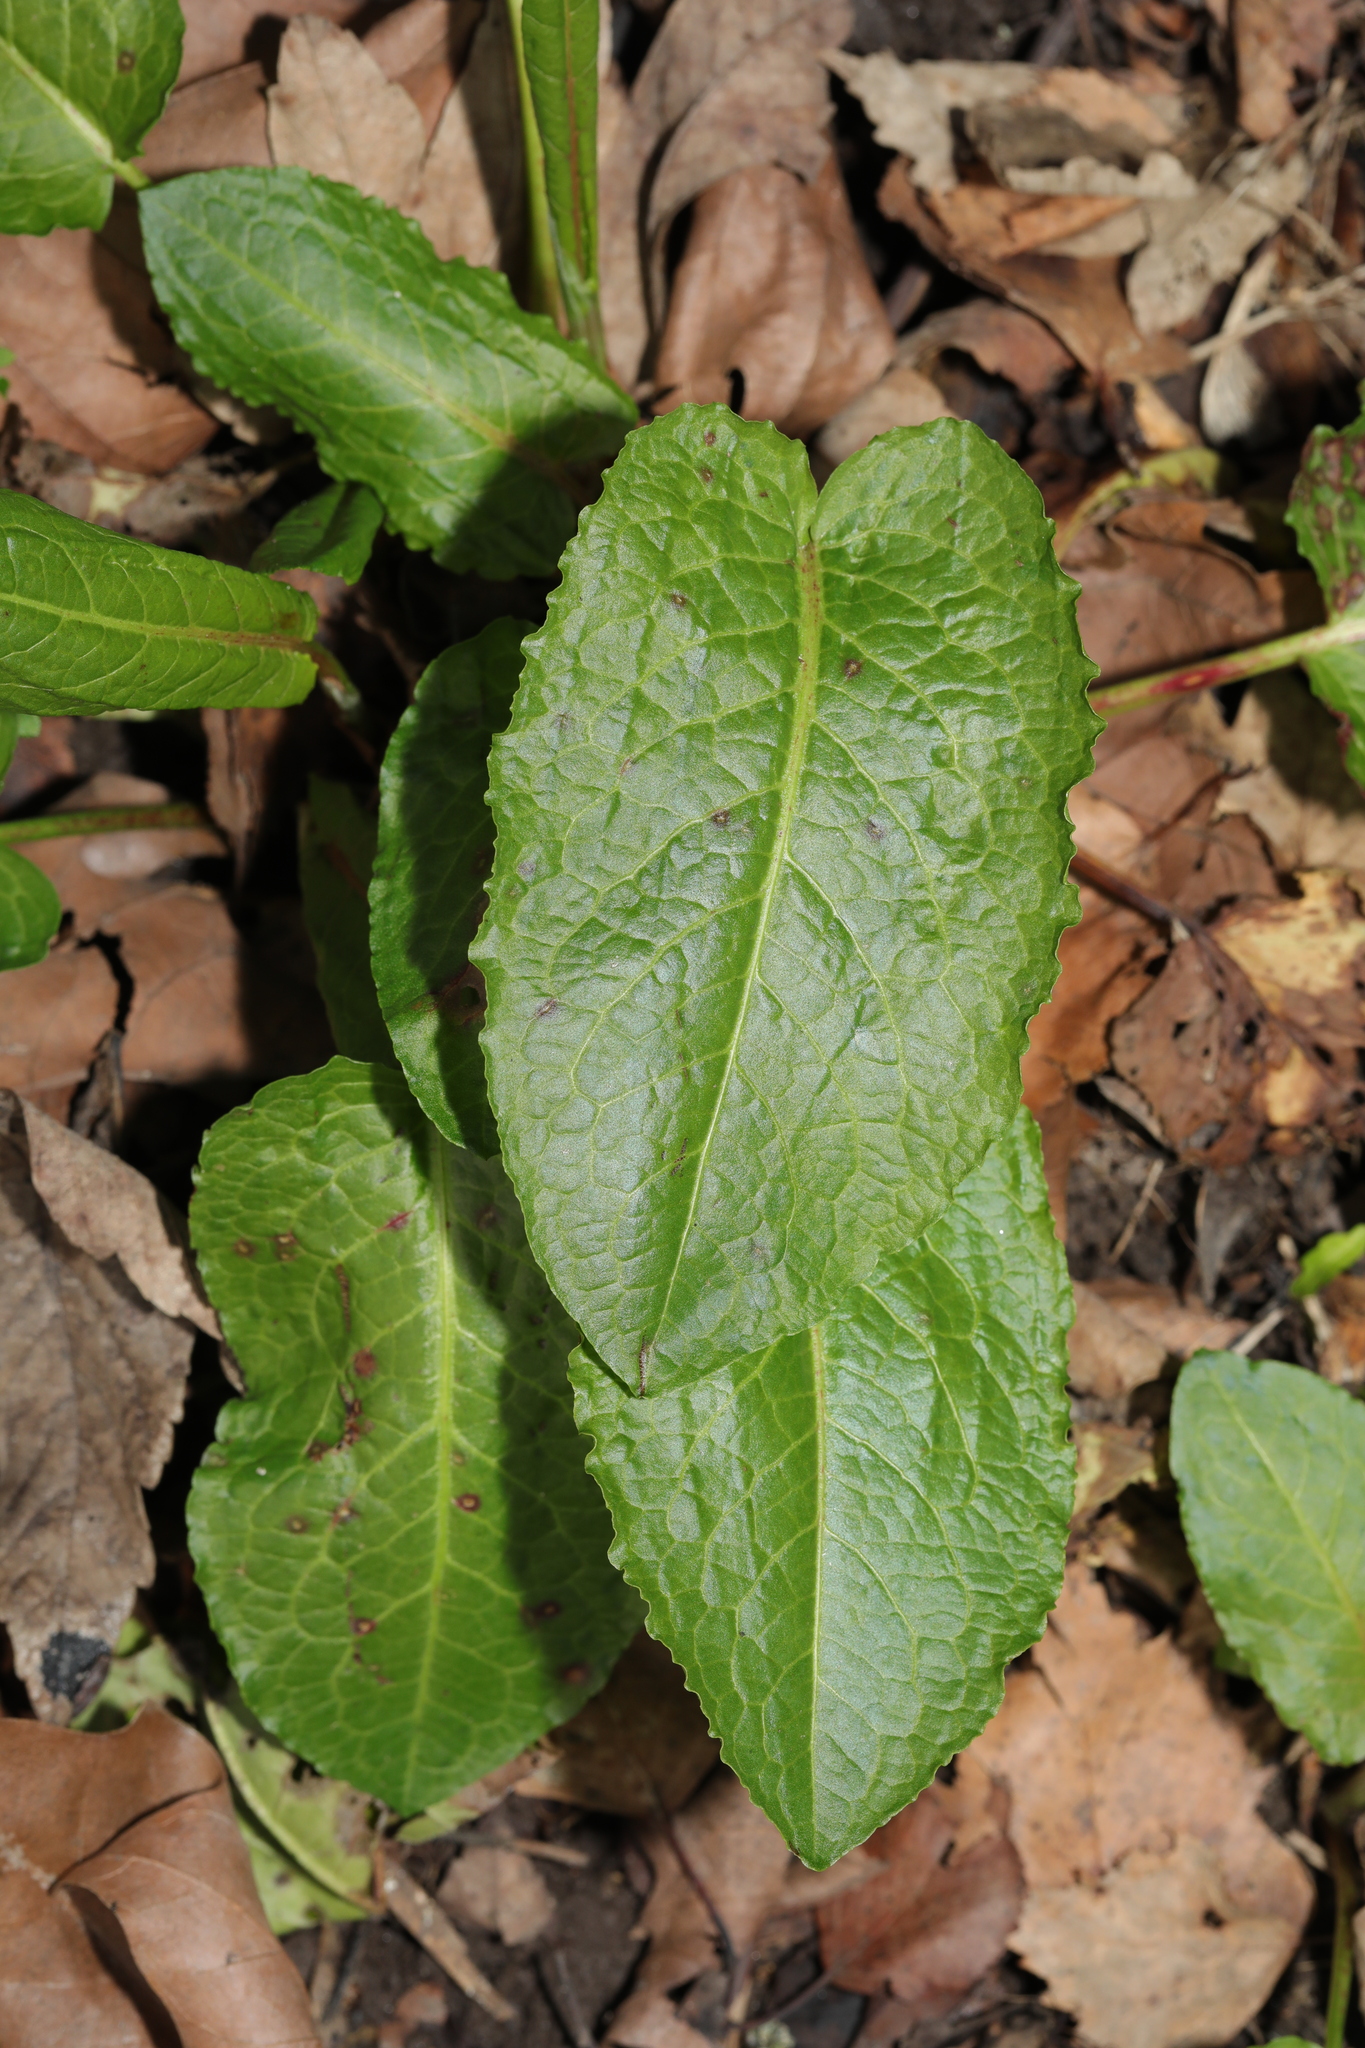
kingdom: Plantae
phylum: Tracheophyta
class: Magnoliopsida
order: Caryophyllales
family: Polygonaceae
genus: Rumex
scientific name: Rumex obtusifolius
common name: Bitter dock
